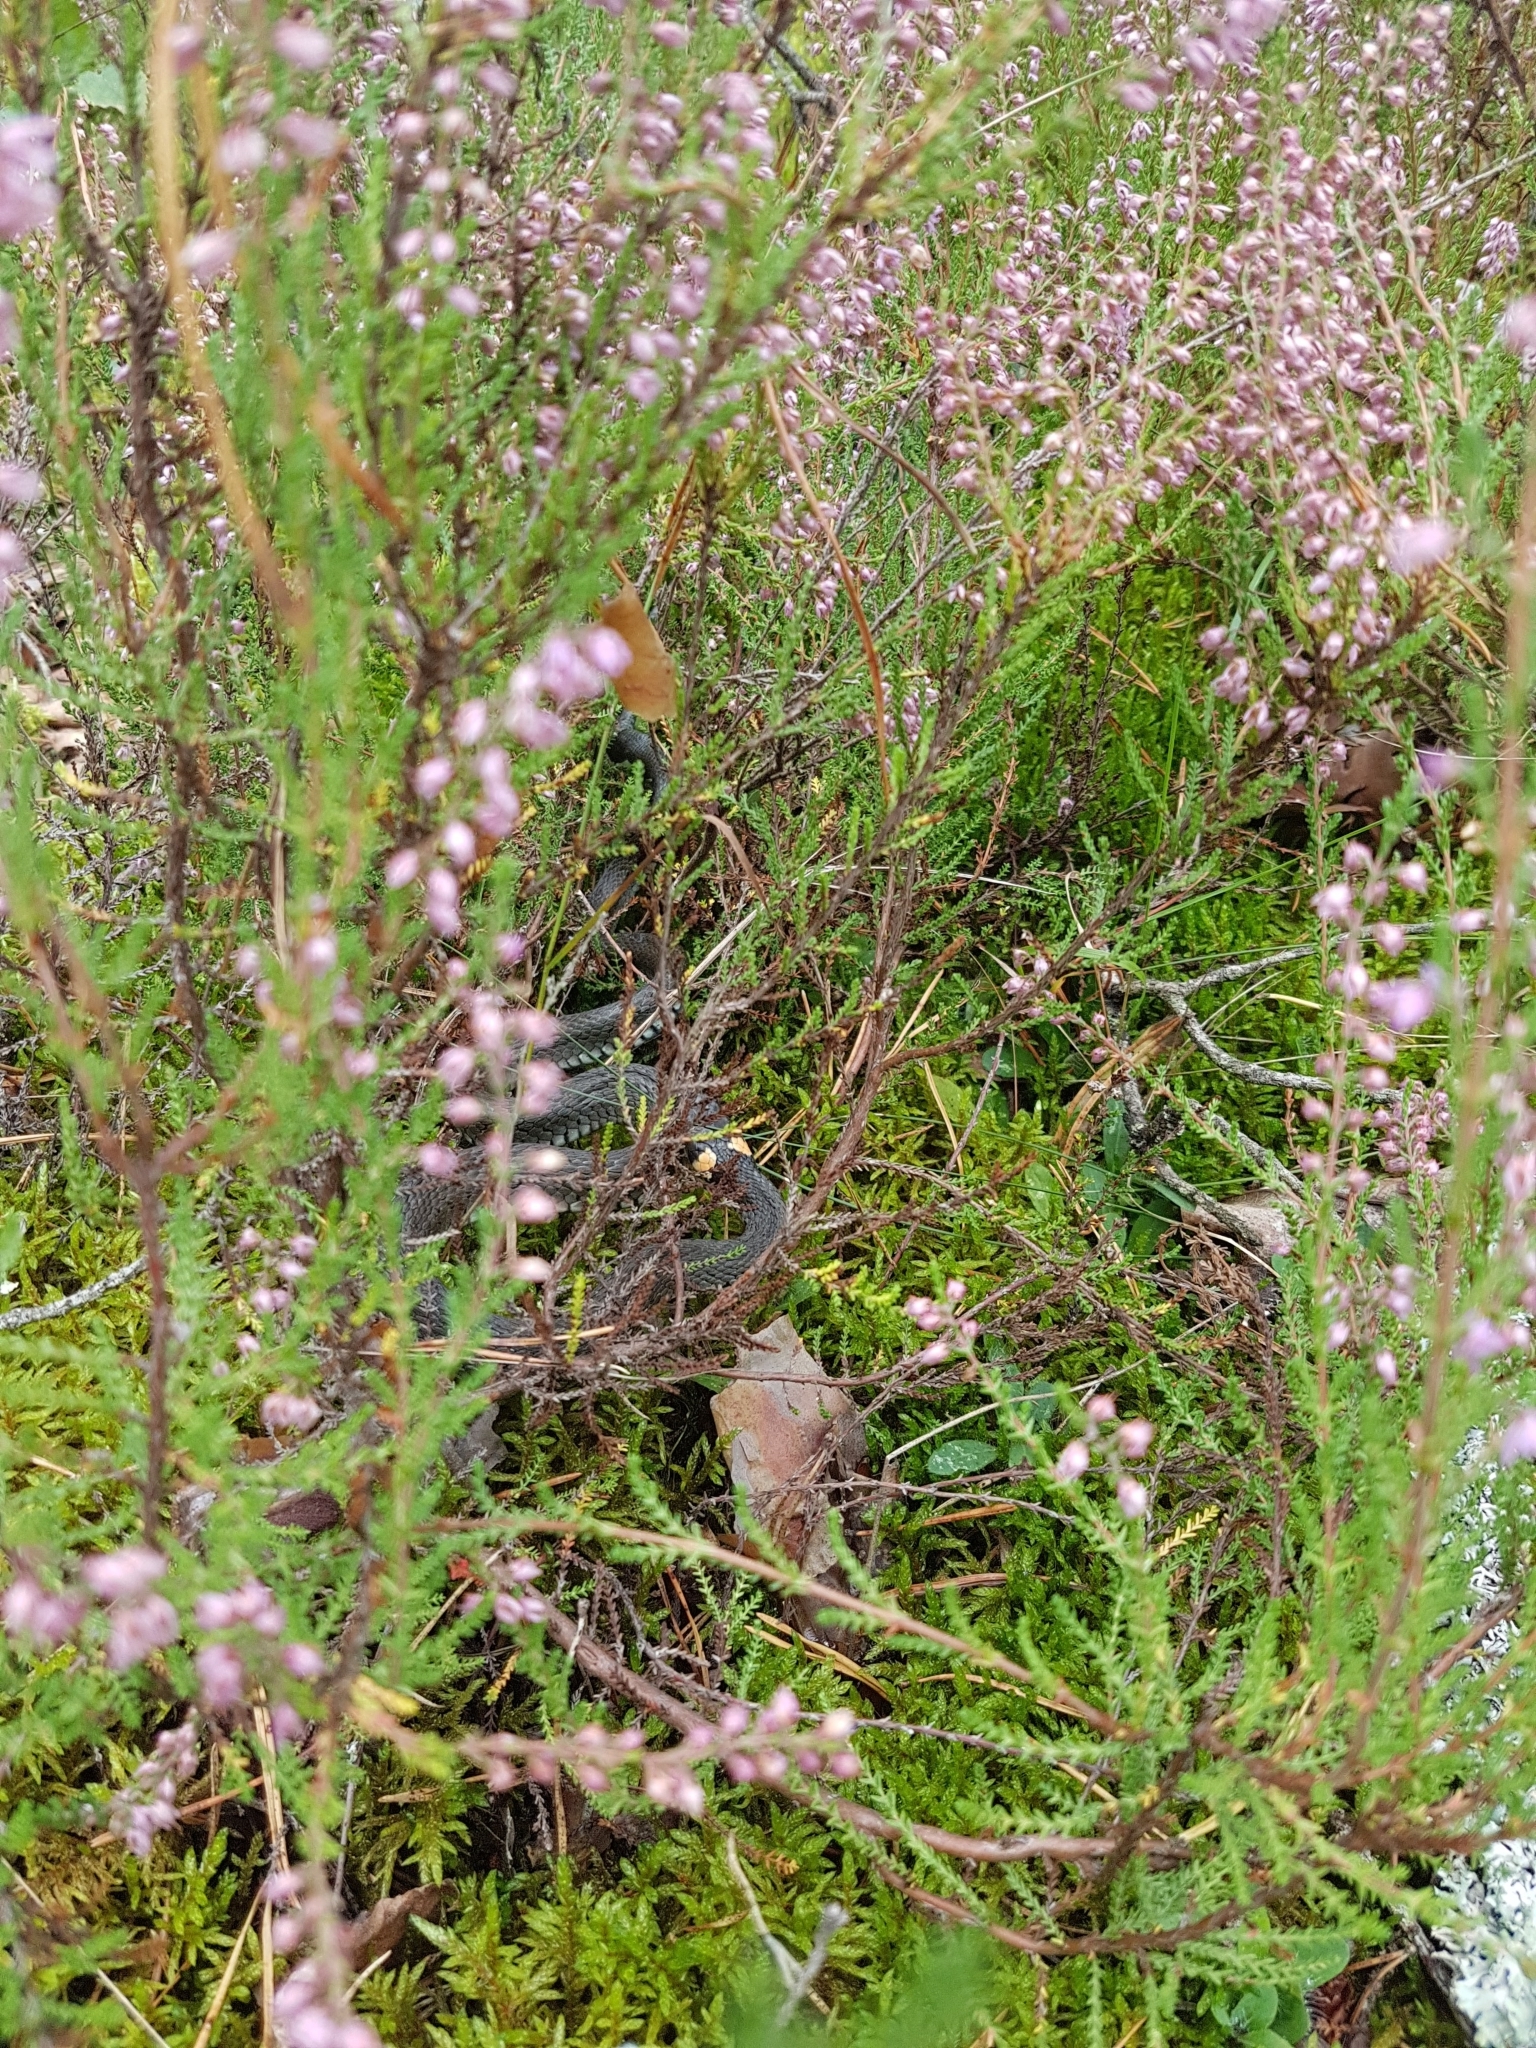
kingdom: Animalia
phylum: Chordata
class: Squamata
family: Colubridae
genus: Natrix
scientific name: Natrix natrix
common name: Grass snake
